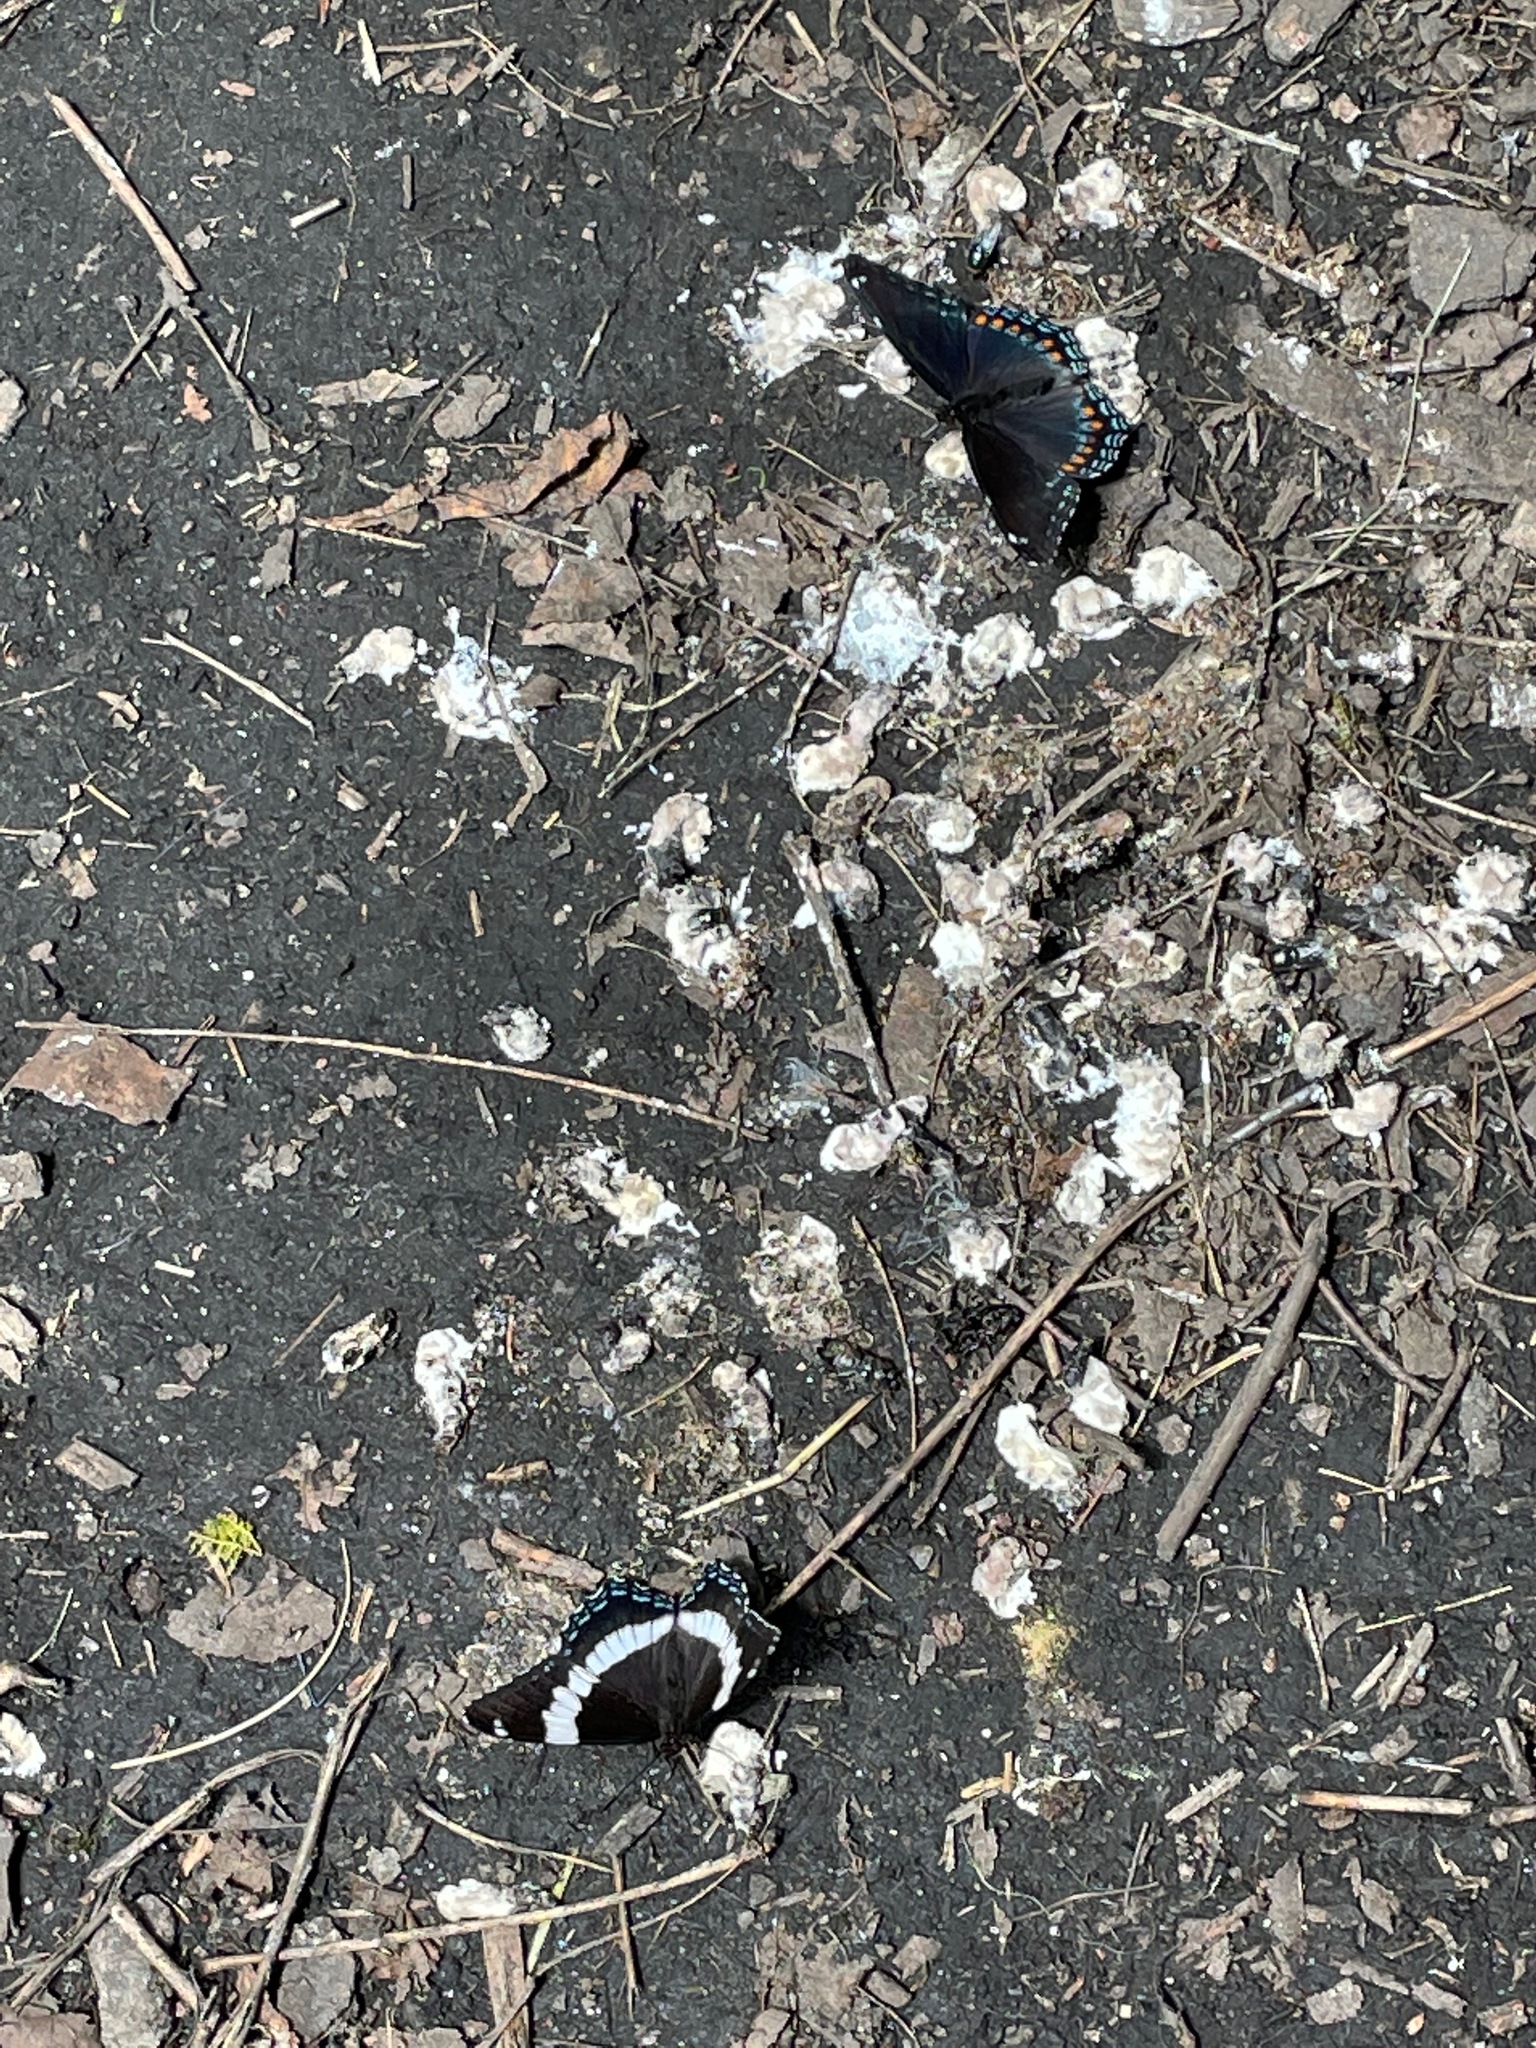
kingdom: Animalia
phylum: Arthropoda
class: Insecta
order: Lepidoptera
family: Nymphalidae
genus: Limenitis
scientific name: Limenitis arthemis
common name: Red-spotted admiral
